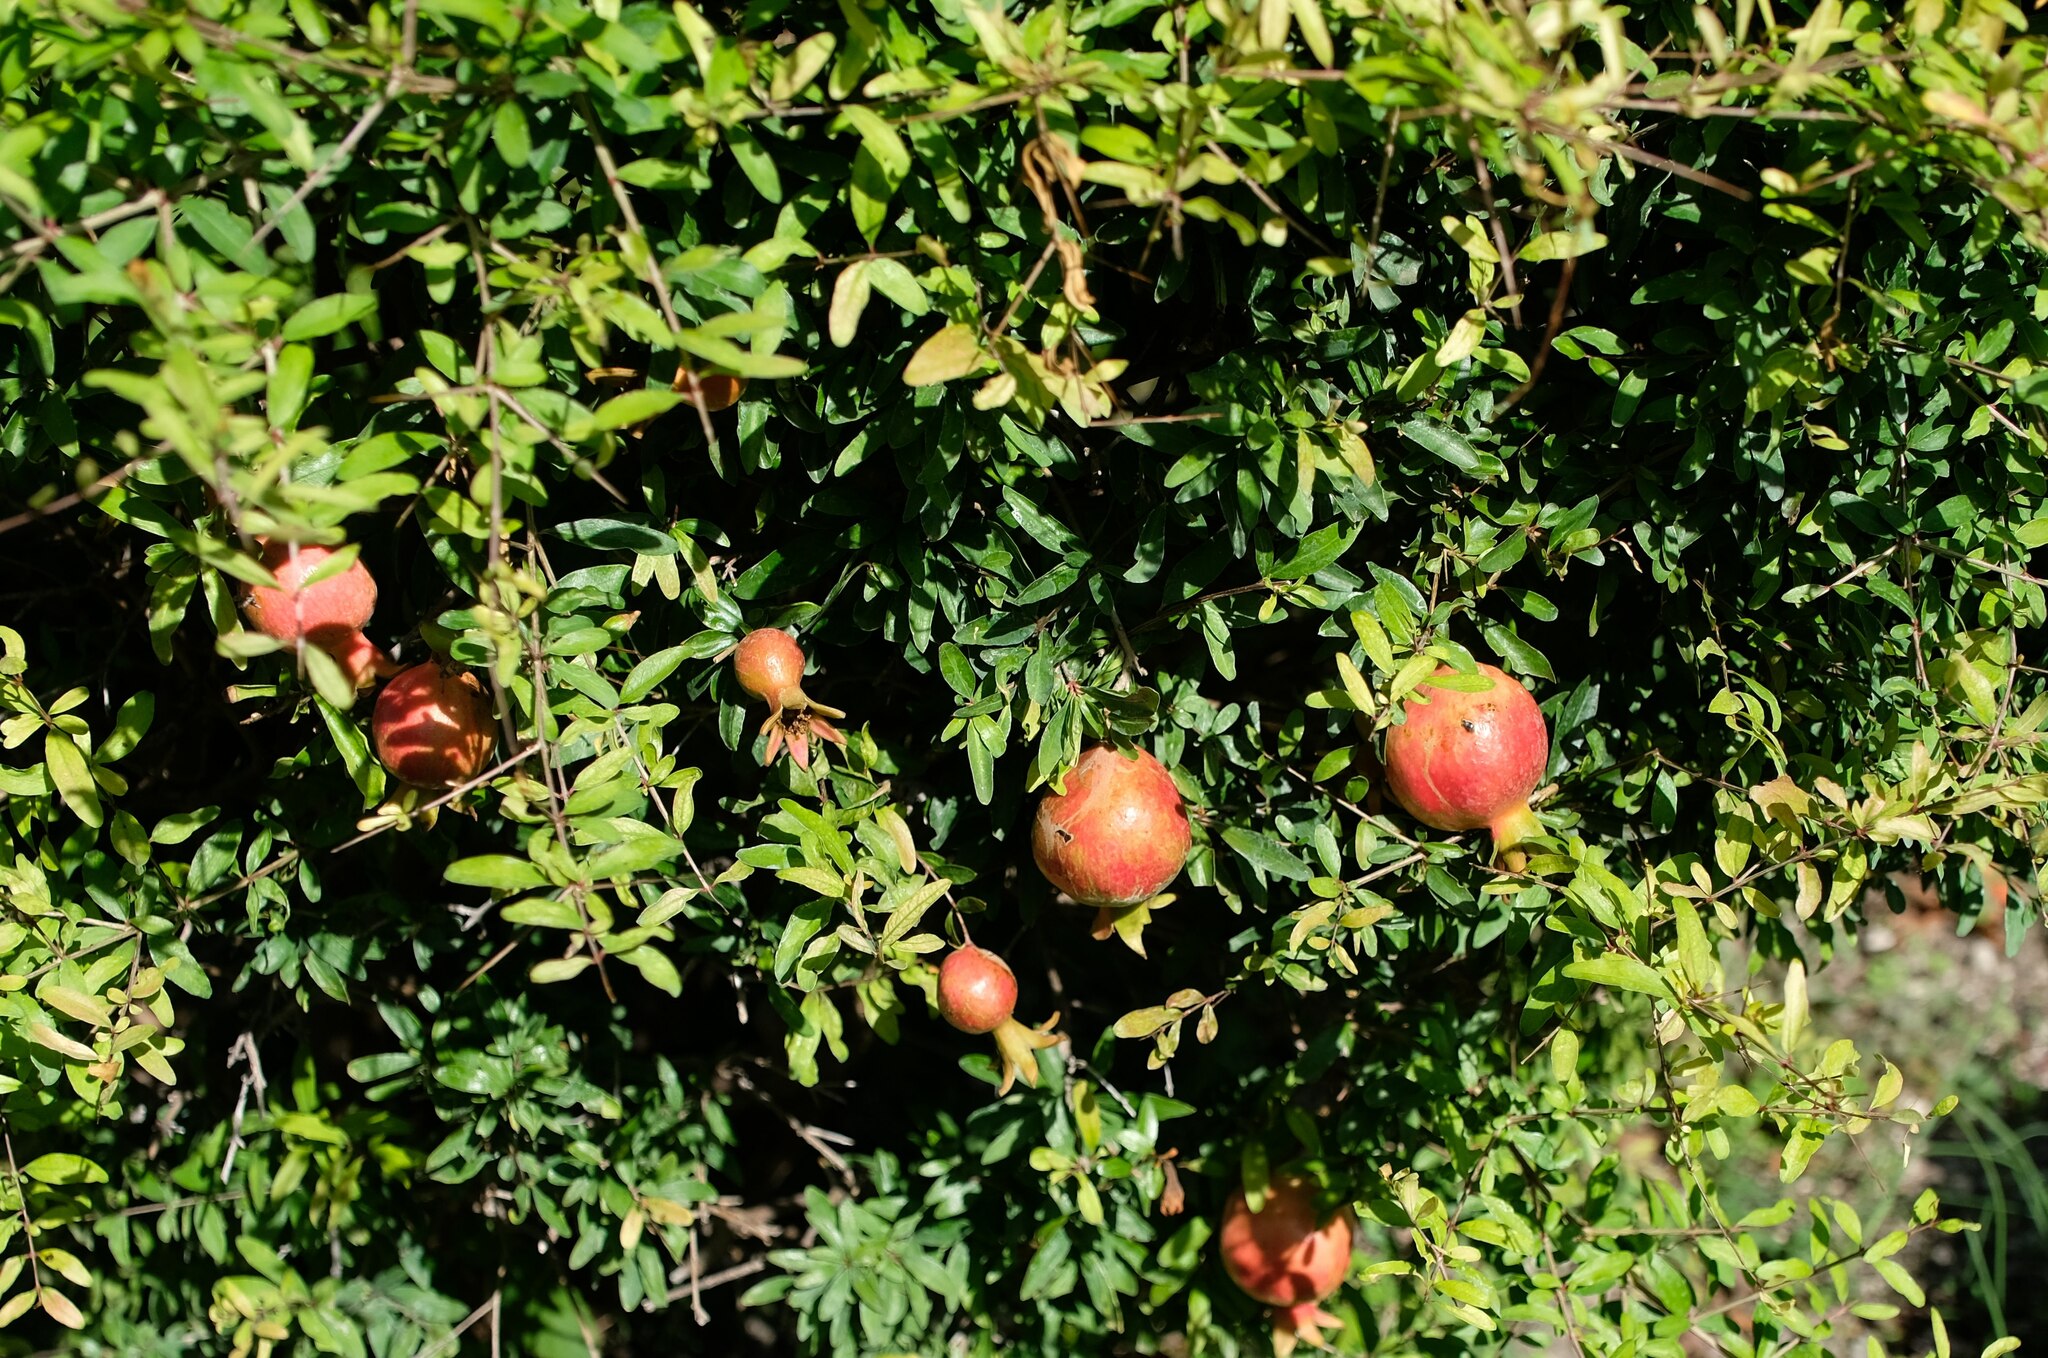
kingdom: Plantae
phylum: Tracheophyta
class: Magnoliopsida
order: Myrtales
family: Lythraceae
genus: Punica
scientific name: Punica granatum
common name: Pomegranate
